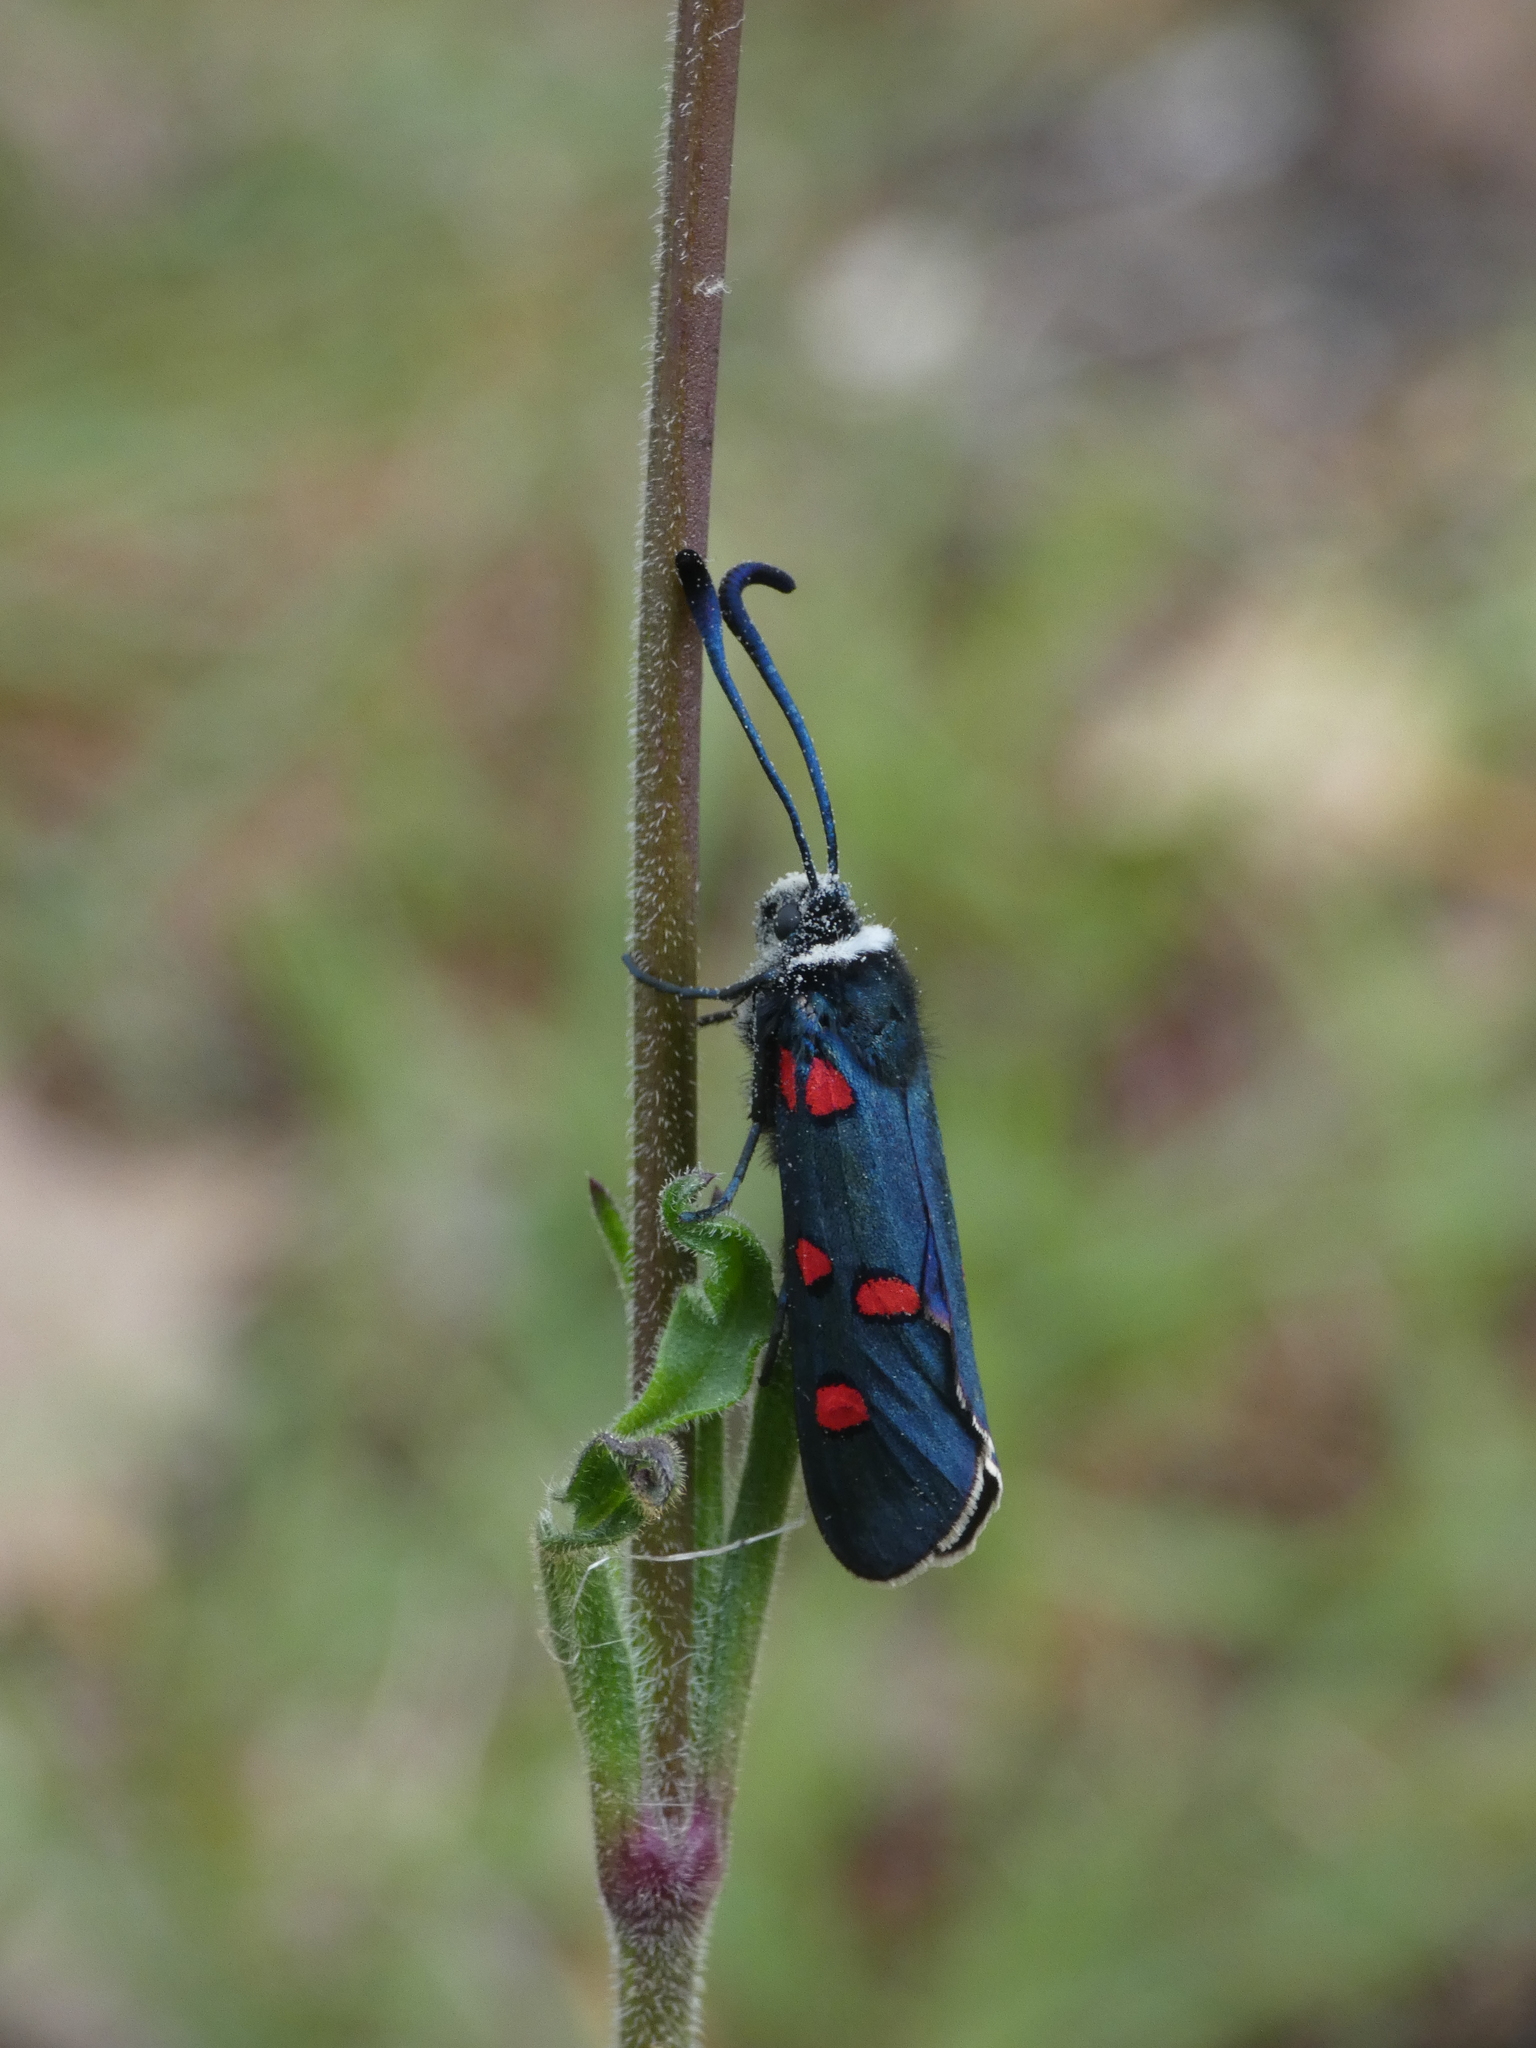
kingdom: Animalia
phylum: Arthropoda
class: Insecta
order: Lepidoptera
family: Zygaenidae
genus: Zygaena
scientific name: Zygaena lavandulae
